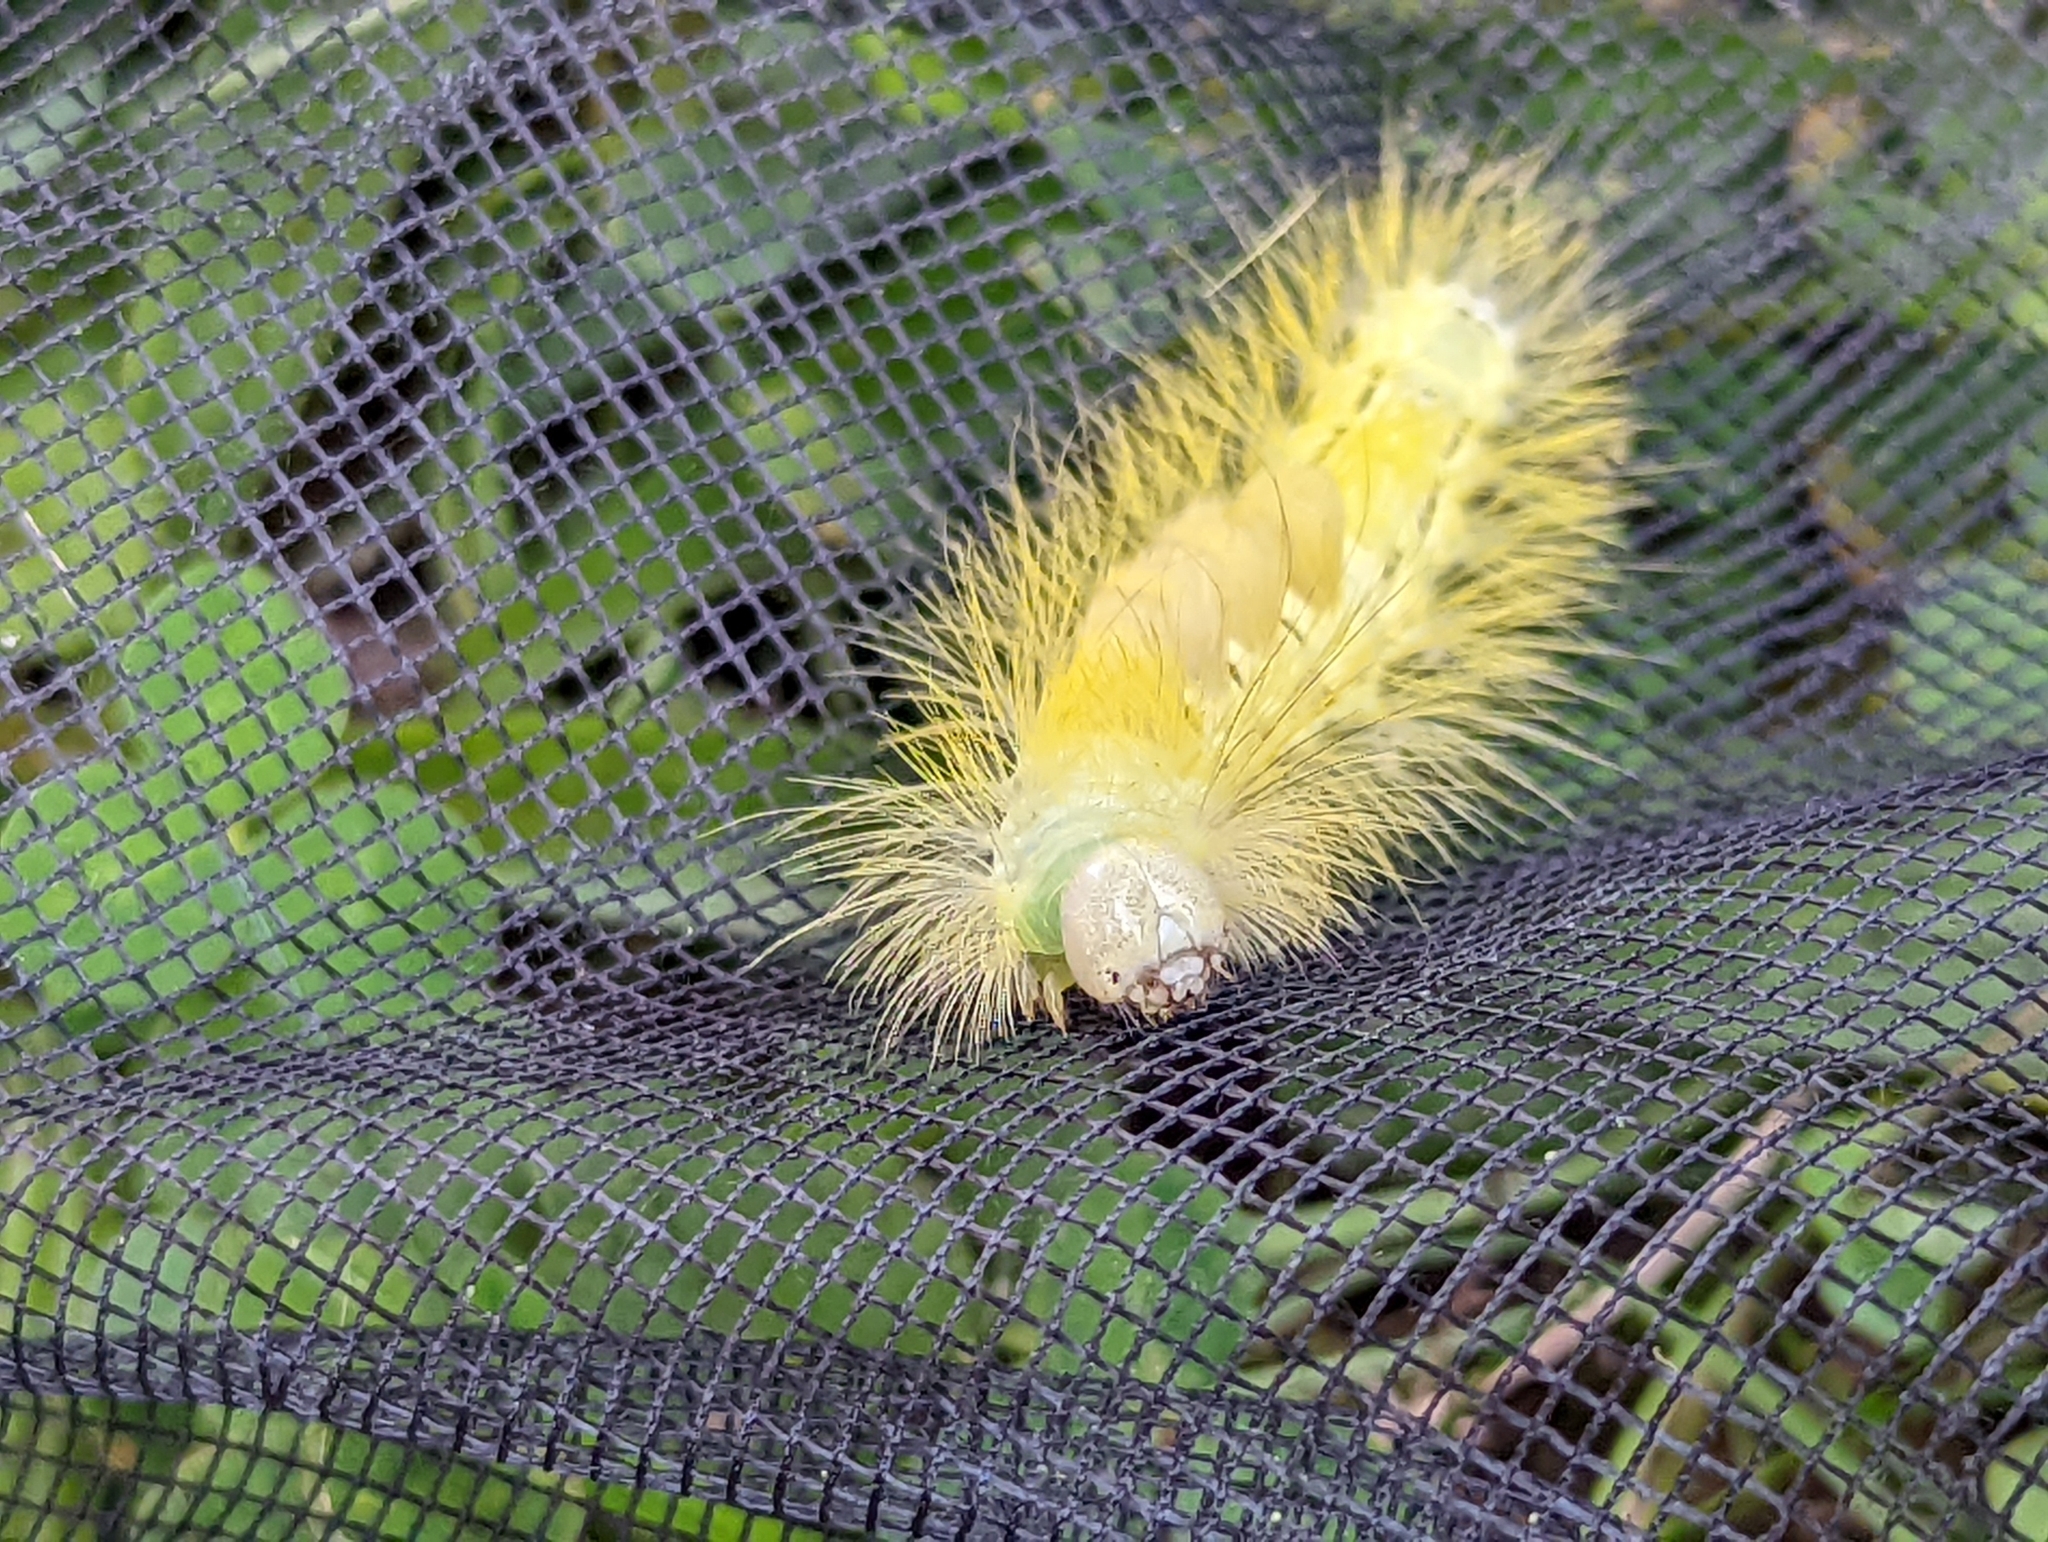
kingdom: Animalia
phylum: Arthropoda
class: Insecta
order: Lepidoptera
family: Erebidae
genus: Calliteara
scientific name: Calliteara pudibunda
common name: Pale tussock
